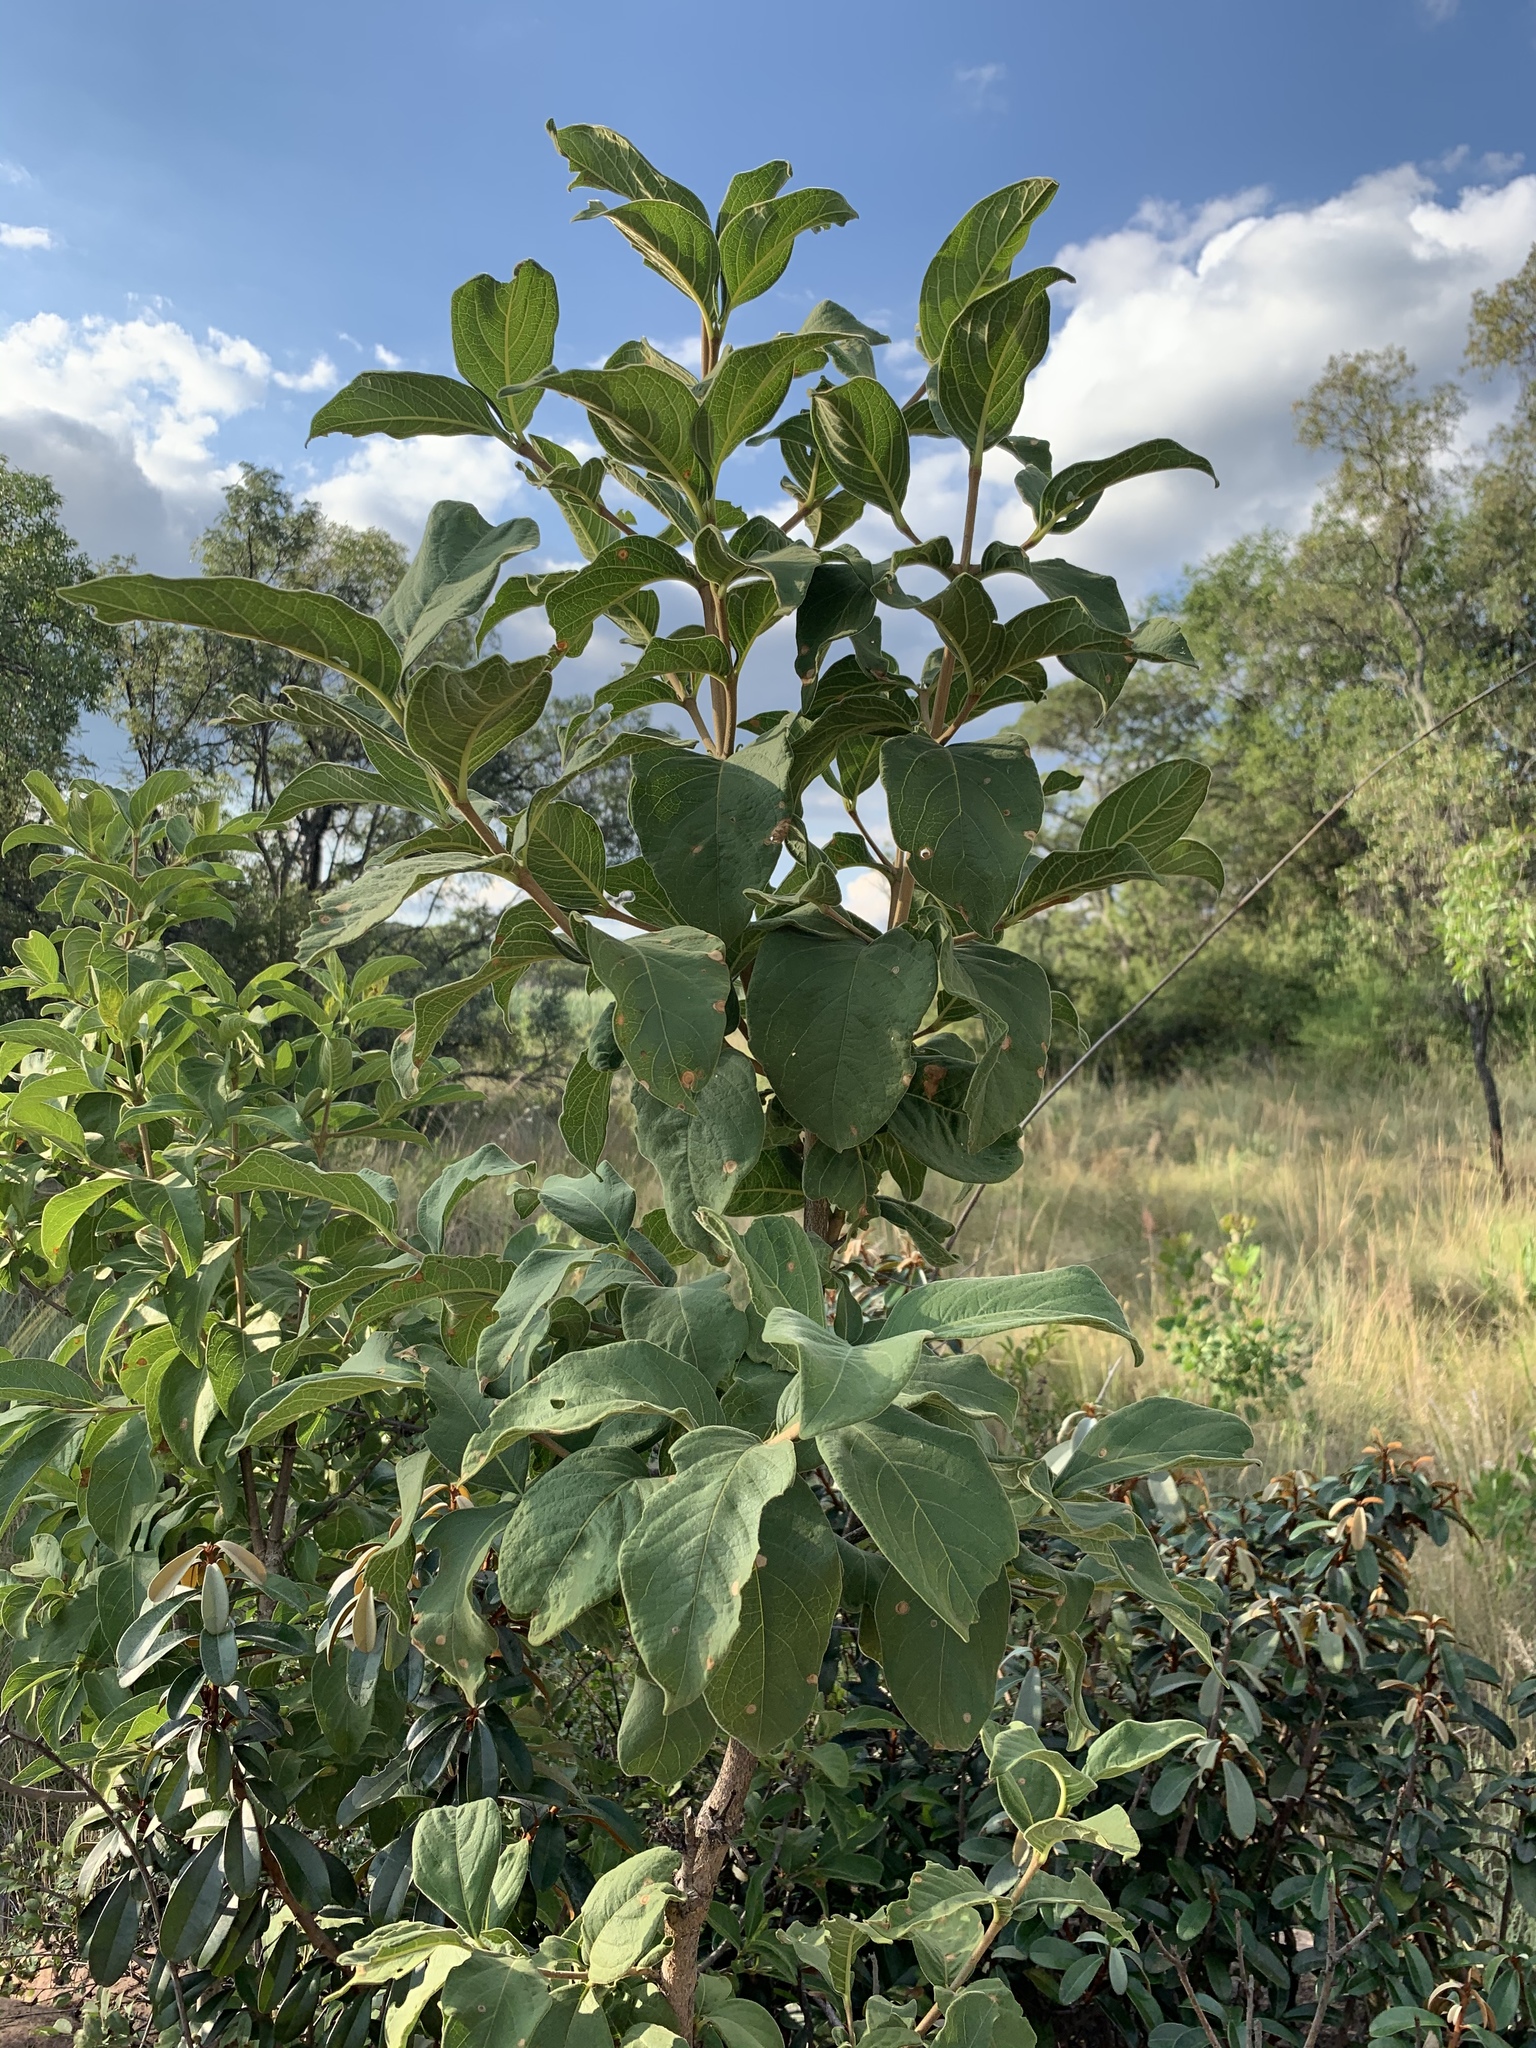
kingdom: Plantae
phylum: Tracheophyta
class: Magnoliopsida
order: Gentianales
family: Rubiaceae
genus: Vangueria
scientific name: Vangueria infausta
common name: Medlar
